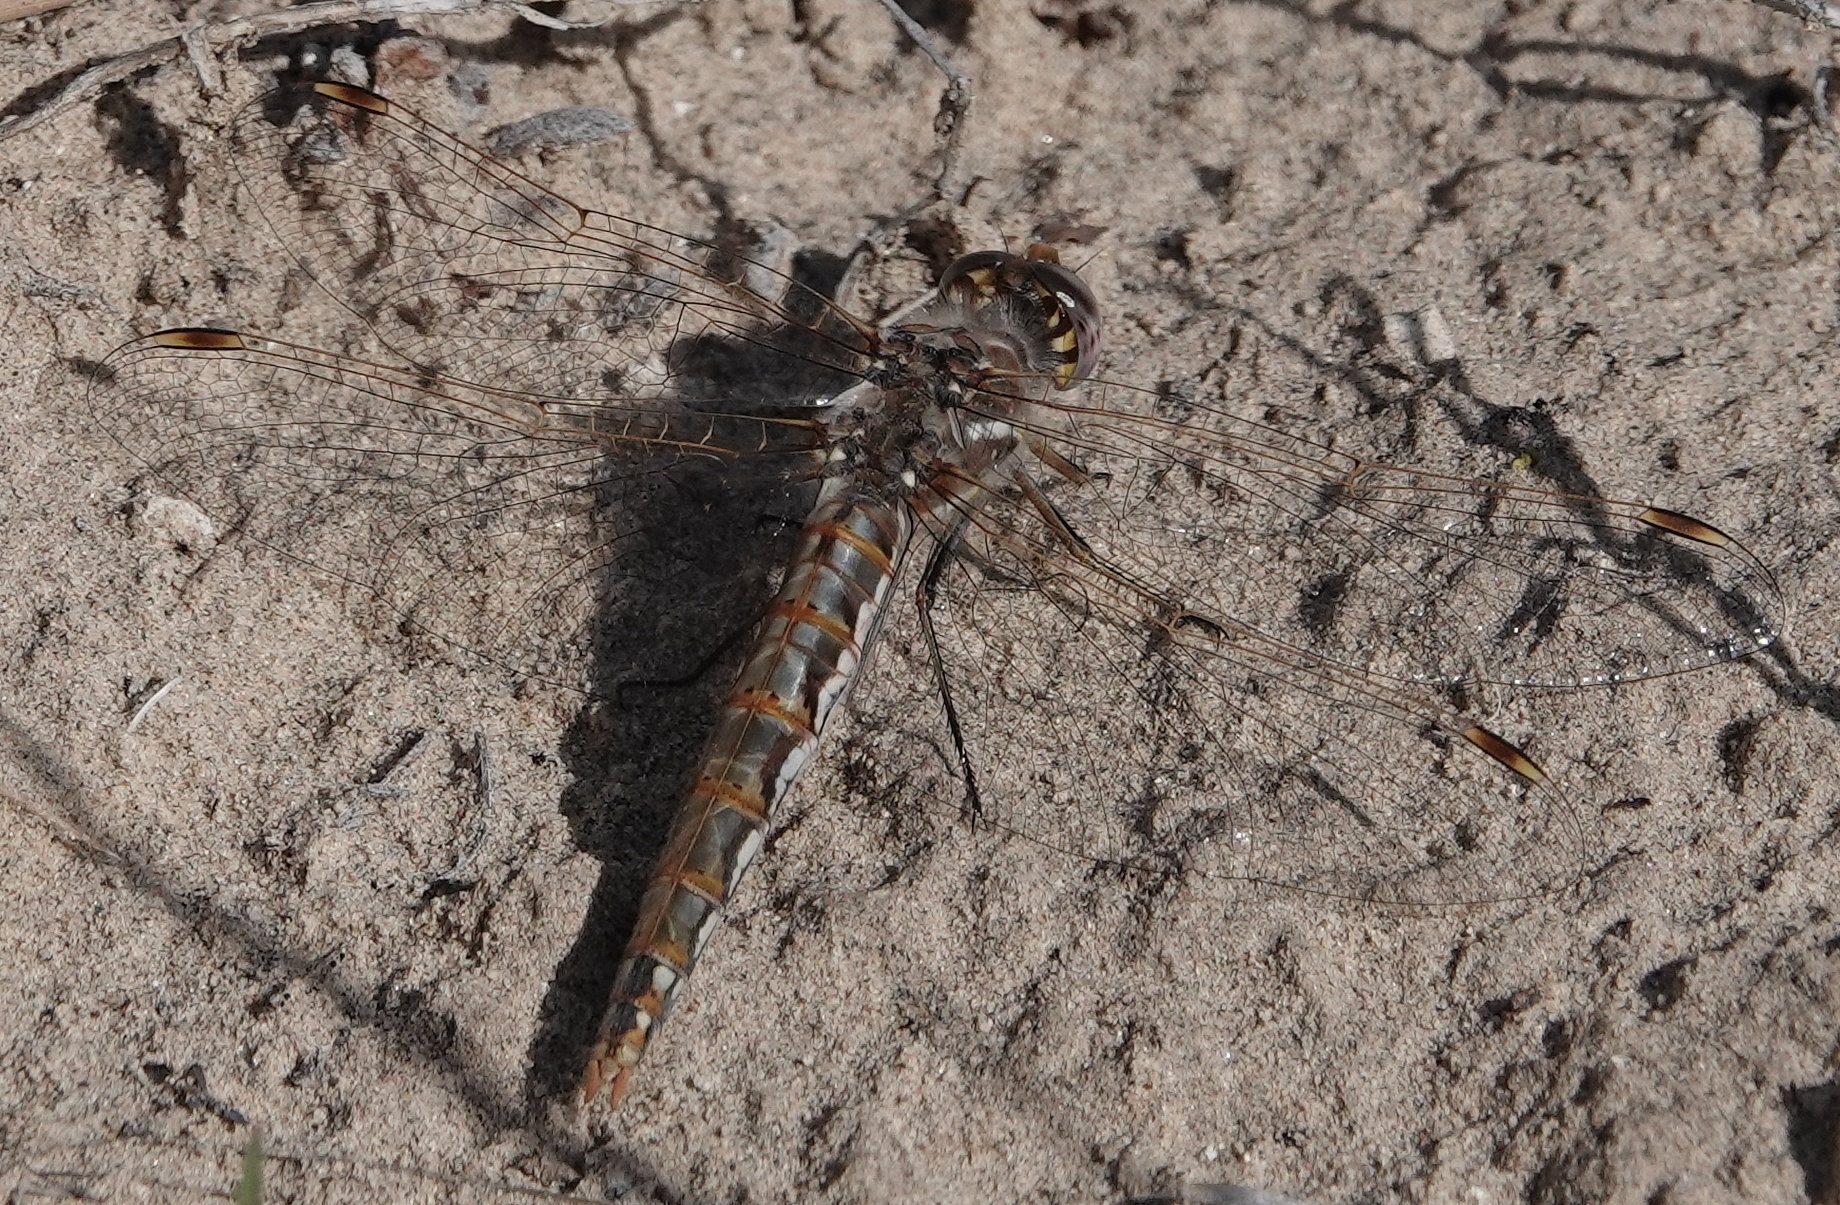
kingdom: Animalia
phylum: Arthropoda
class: Insecta
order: Odonata
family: Libellulidae
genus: Sympetrum
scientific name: Sympetrum corruptum
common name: Variegated meadowhawk
